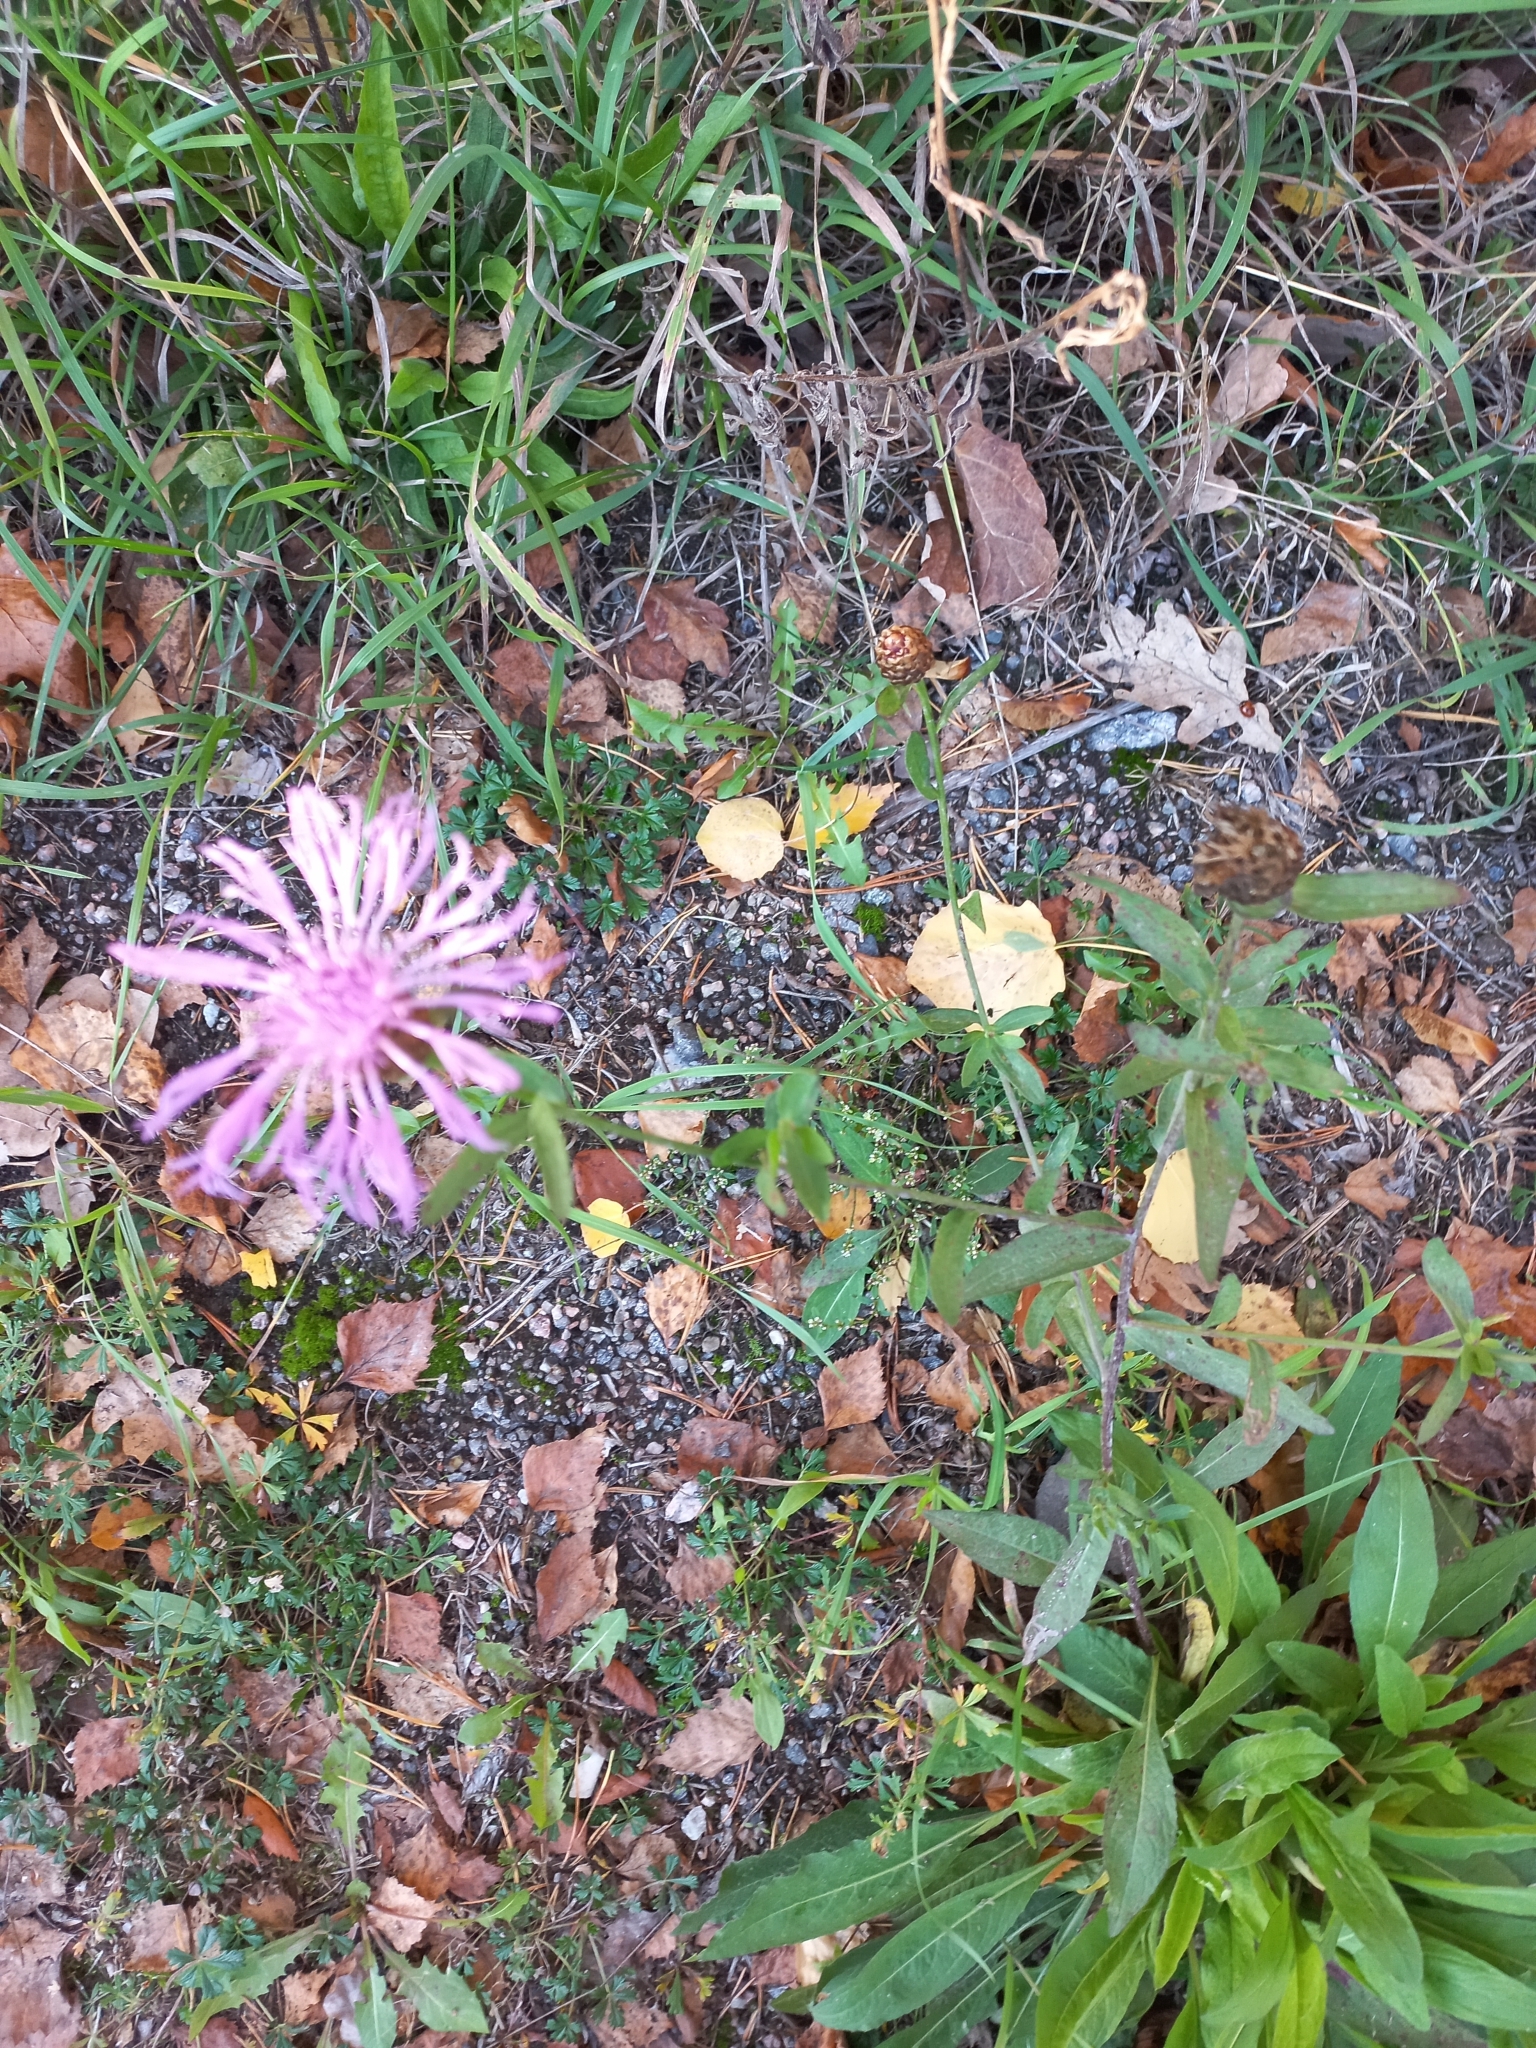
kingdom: Plantae
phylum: Tracheophyta
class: Magnoliopsida
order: Asterales
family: Asteraceae
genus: Centaurea
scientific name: Centaurea jacea
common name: Brown knapweed
